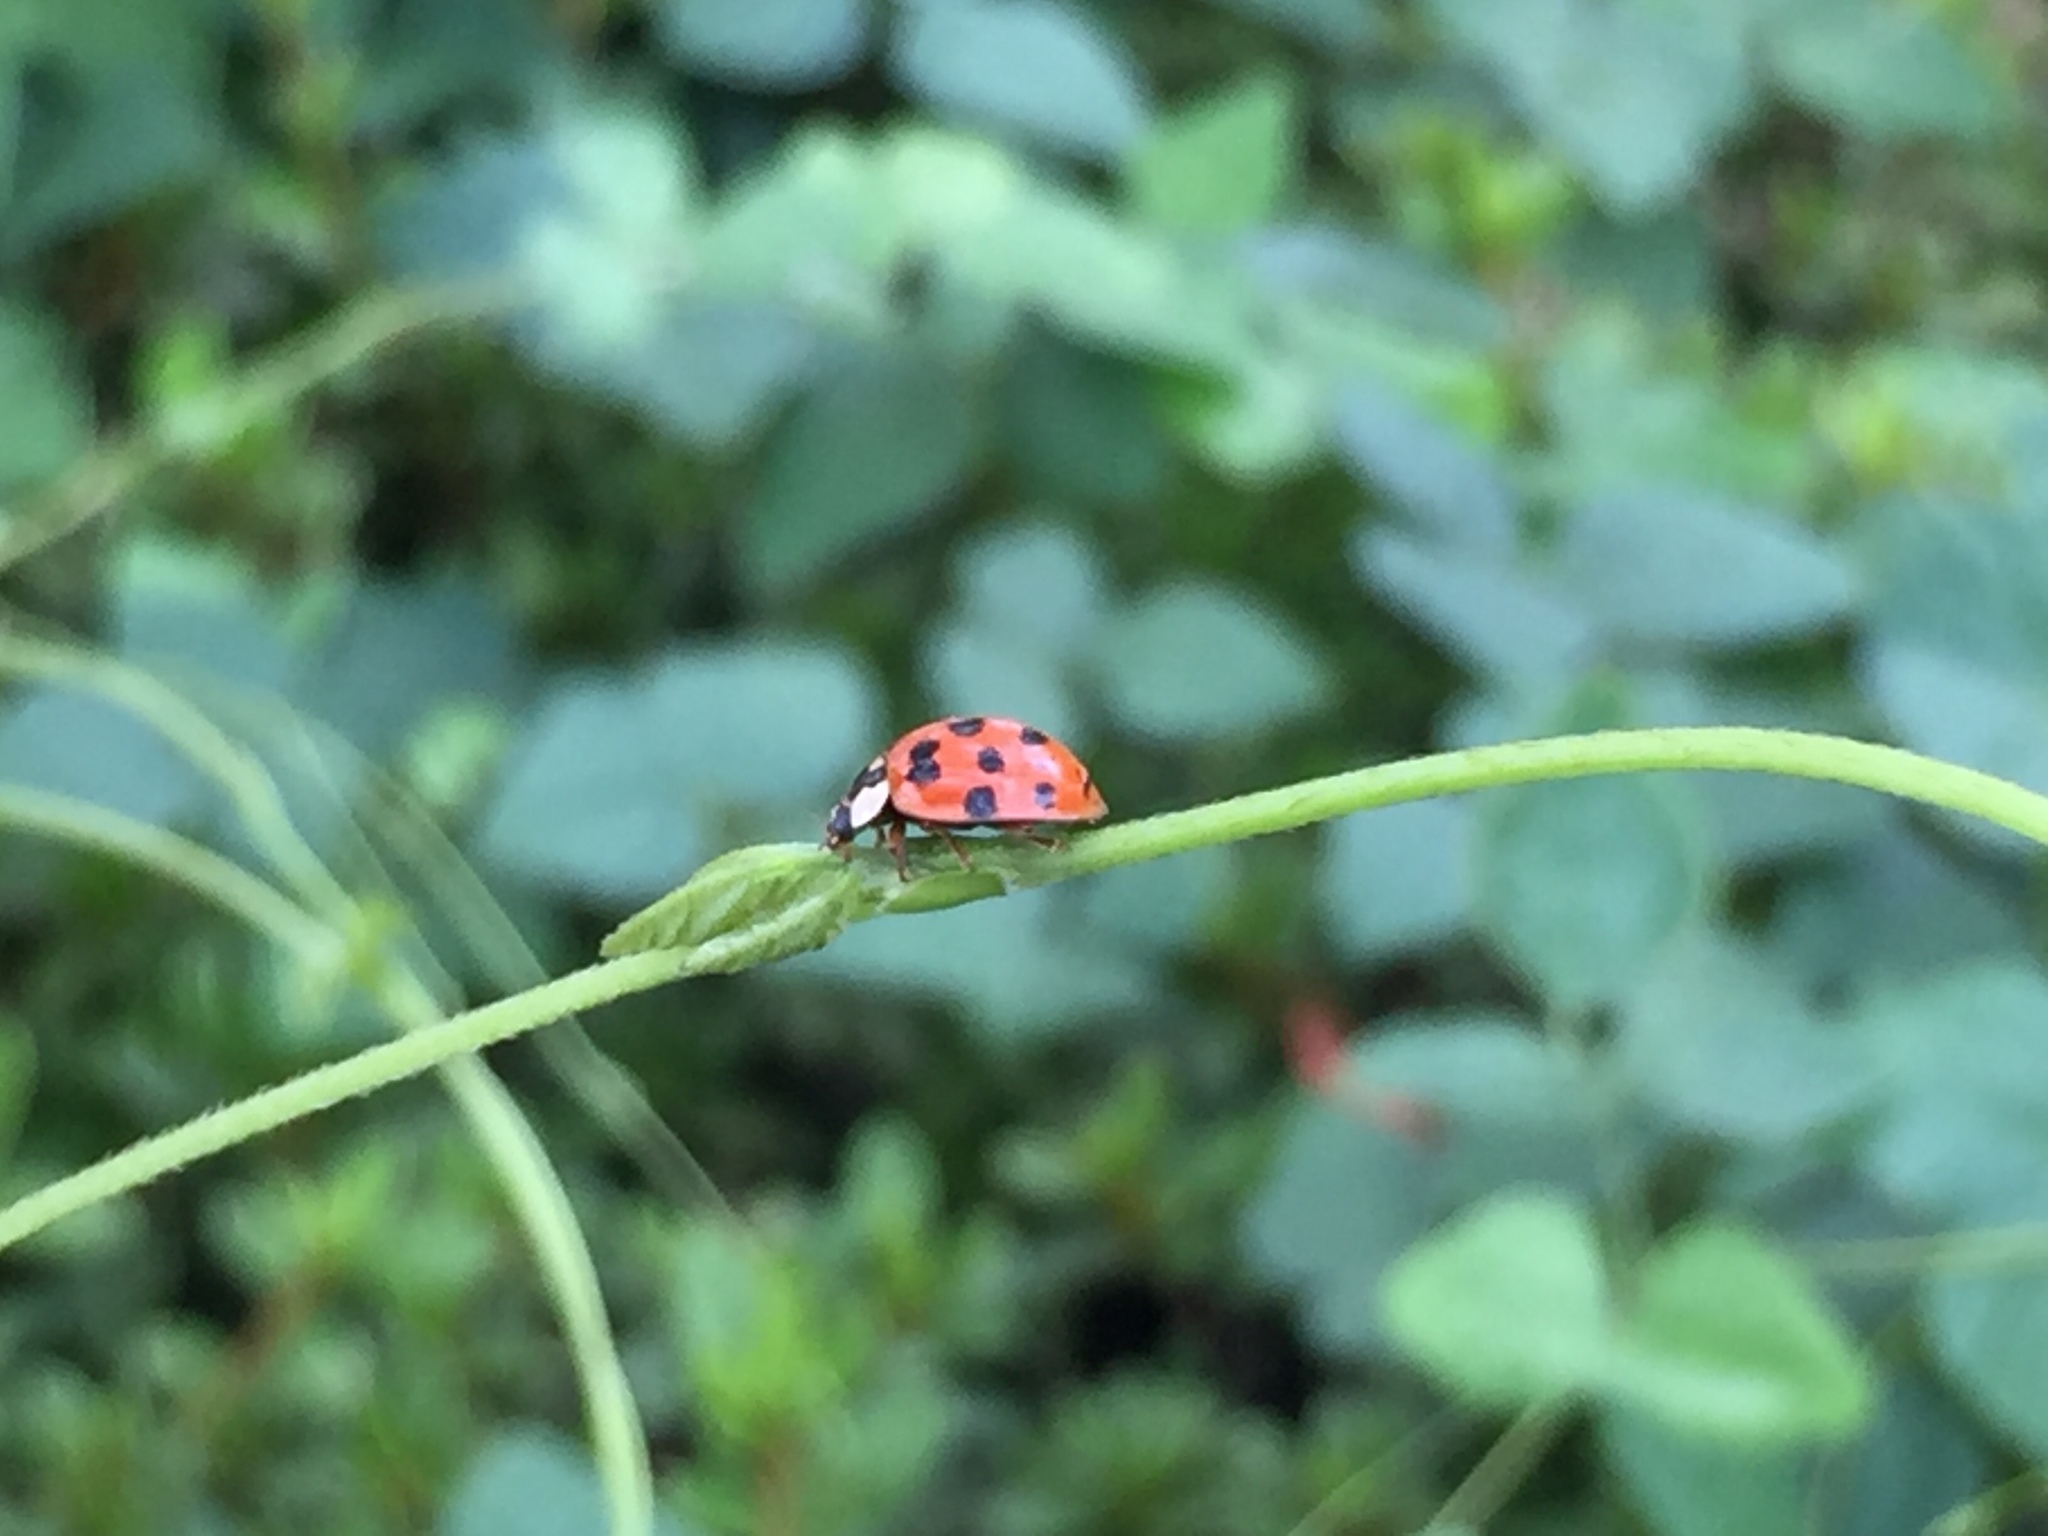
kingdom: Animalia
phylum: Arthropoda
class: Insecta
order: Coleoptera
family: Coccinellidae
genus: Harmonia
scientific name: Harmonia axyridis
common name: Harlequin ladybird
